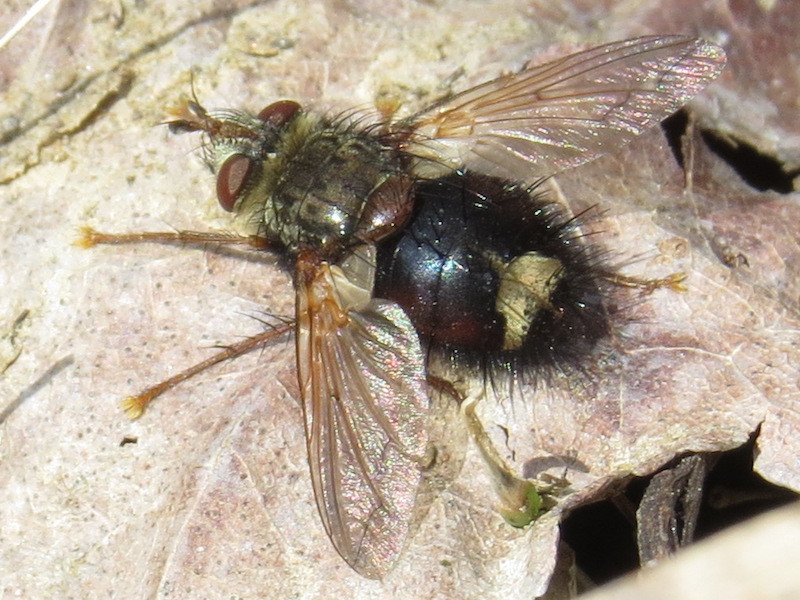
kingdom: Animalia
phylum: Arthropoda
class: Insecta
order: Diptera
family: Tachinidae
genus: Epalpus
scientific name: Epalpus signifer
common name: Early tachinid fly
